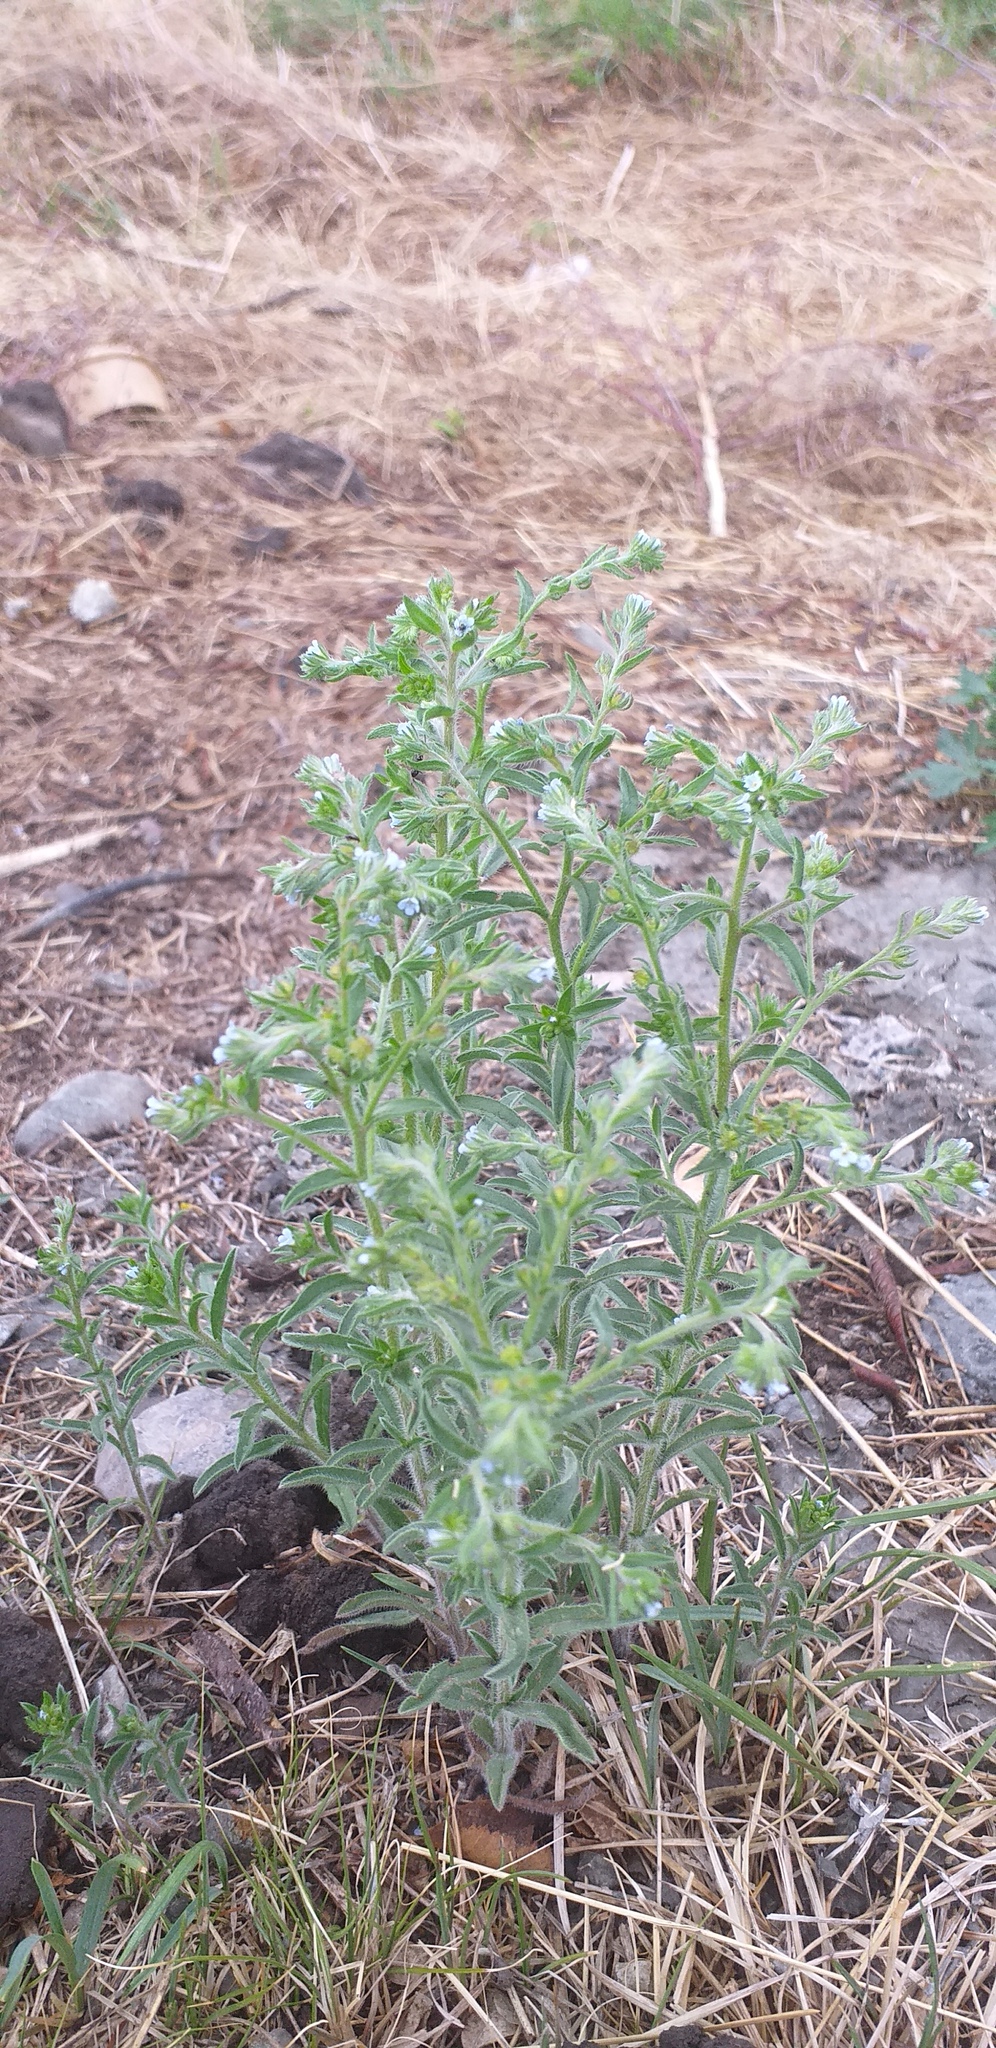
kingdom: Plantae
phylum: Tracheophyta
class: Magnoliopsida
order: Boraginales
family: Boraginaceae
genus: Lappula
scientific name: Lappula squarrosa
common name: European stickseed
